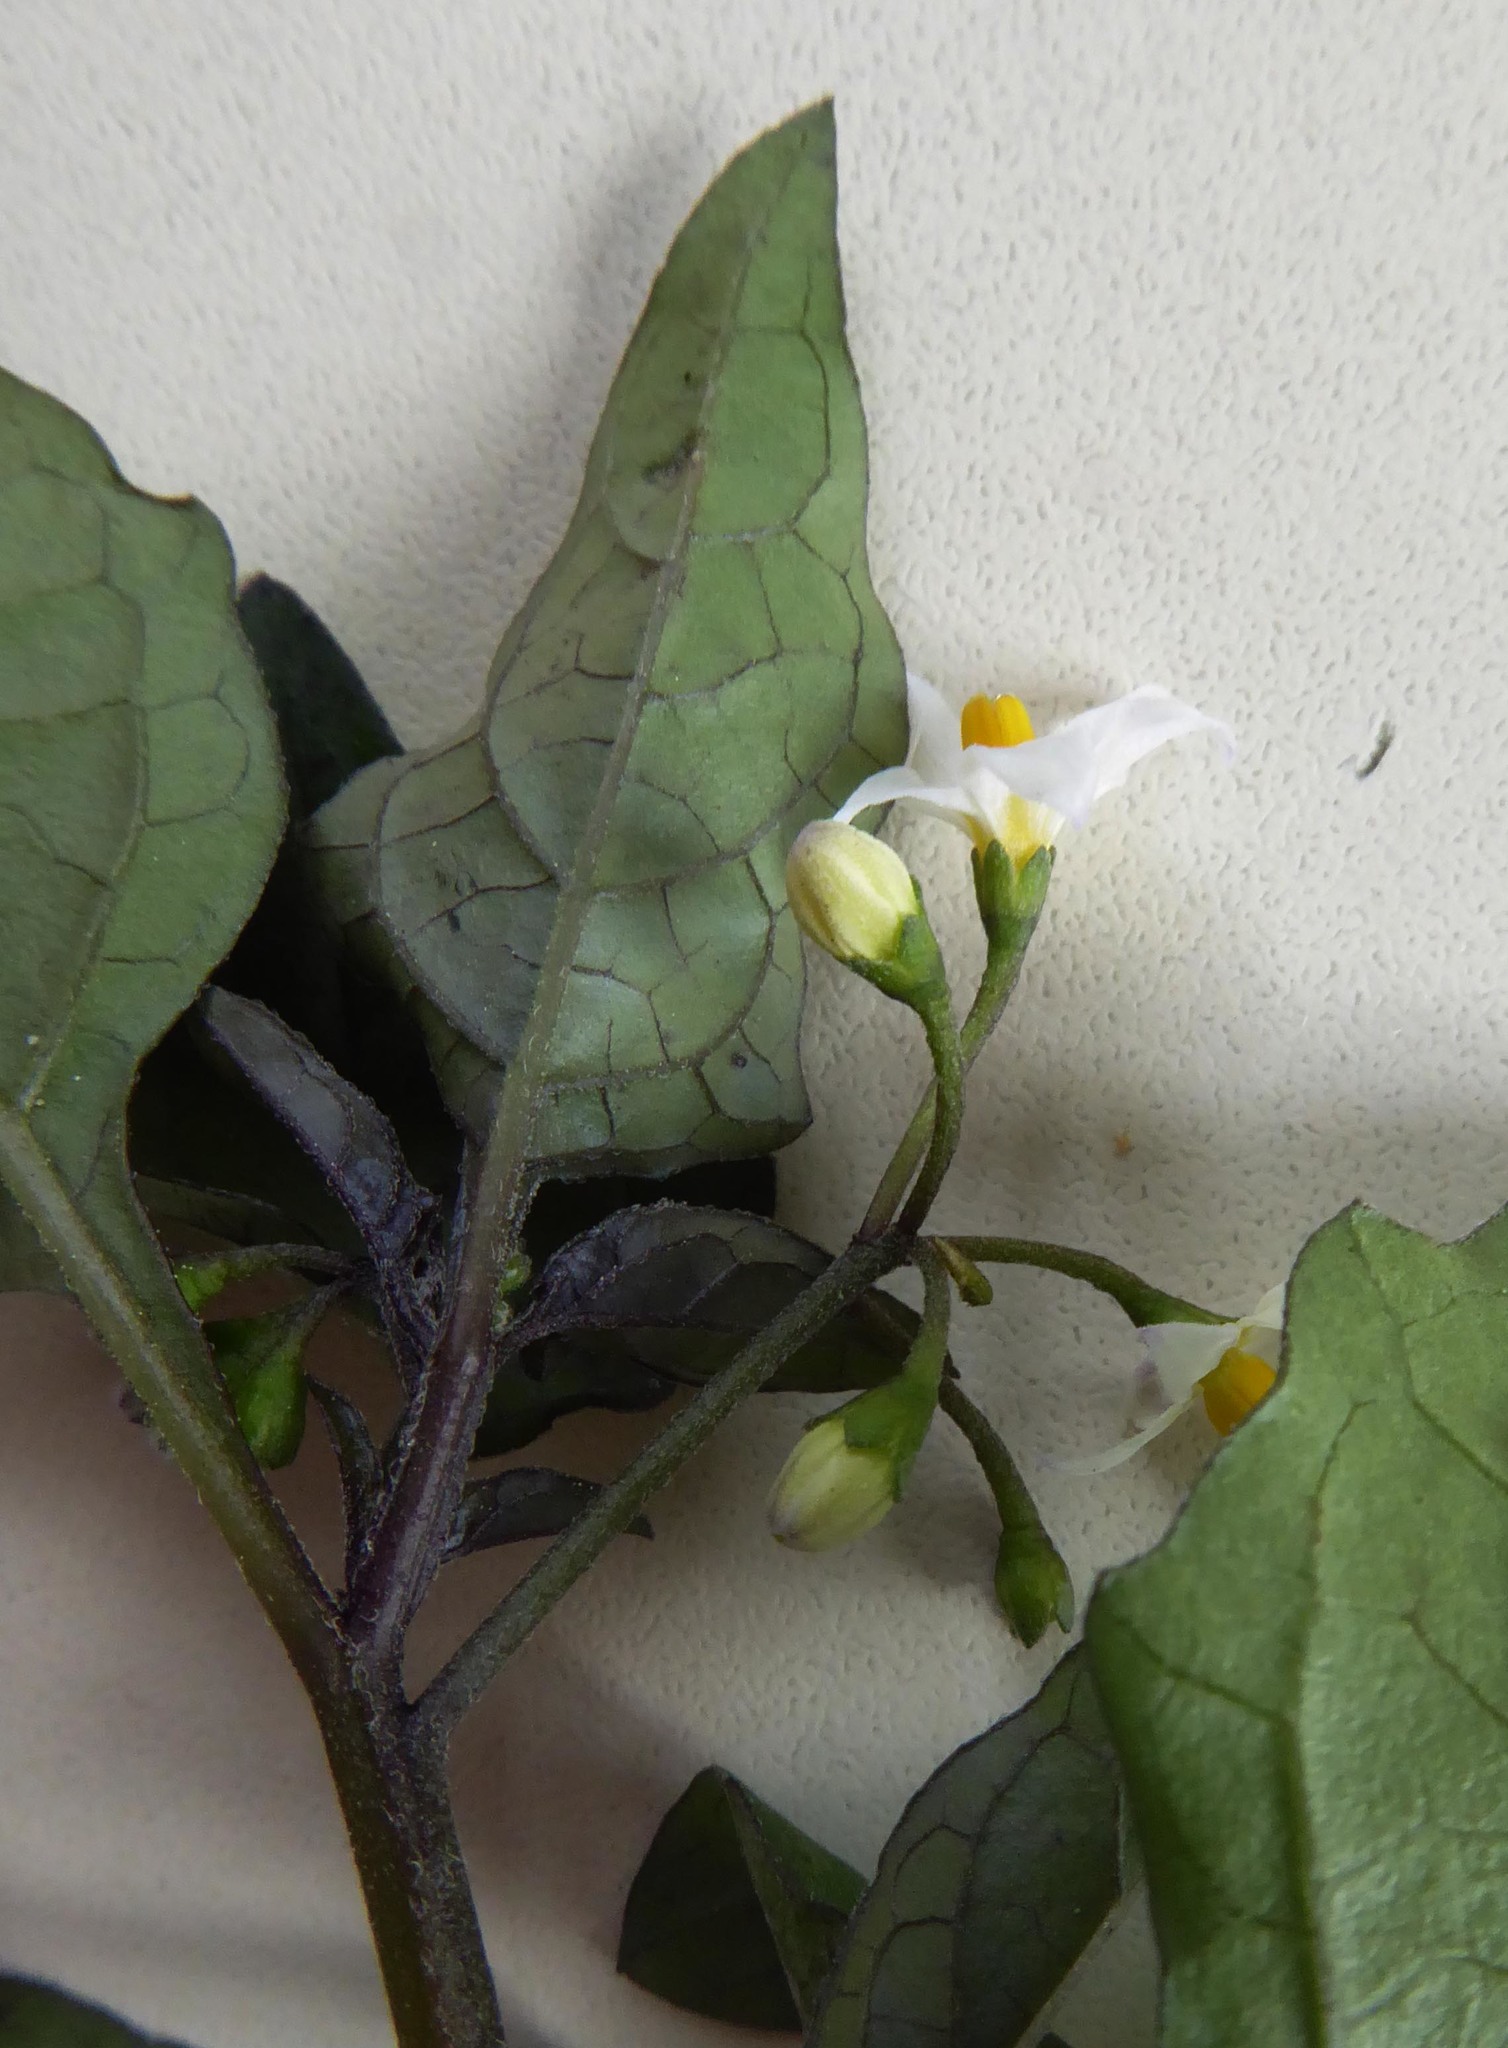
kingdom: Plantae
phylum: Tracheophyta
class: Magnoliopsida
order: Solanales
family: Solanaceae
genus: Solanum
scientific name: Solanum nigrum
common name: Black nightshade
